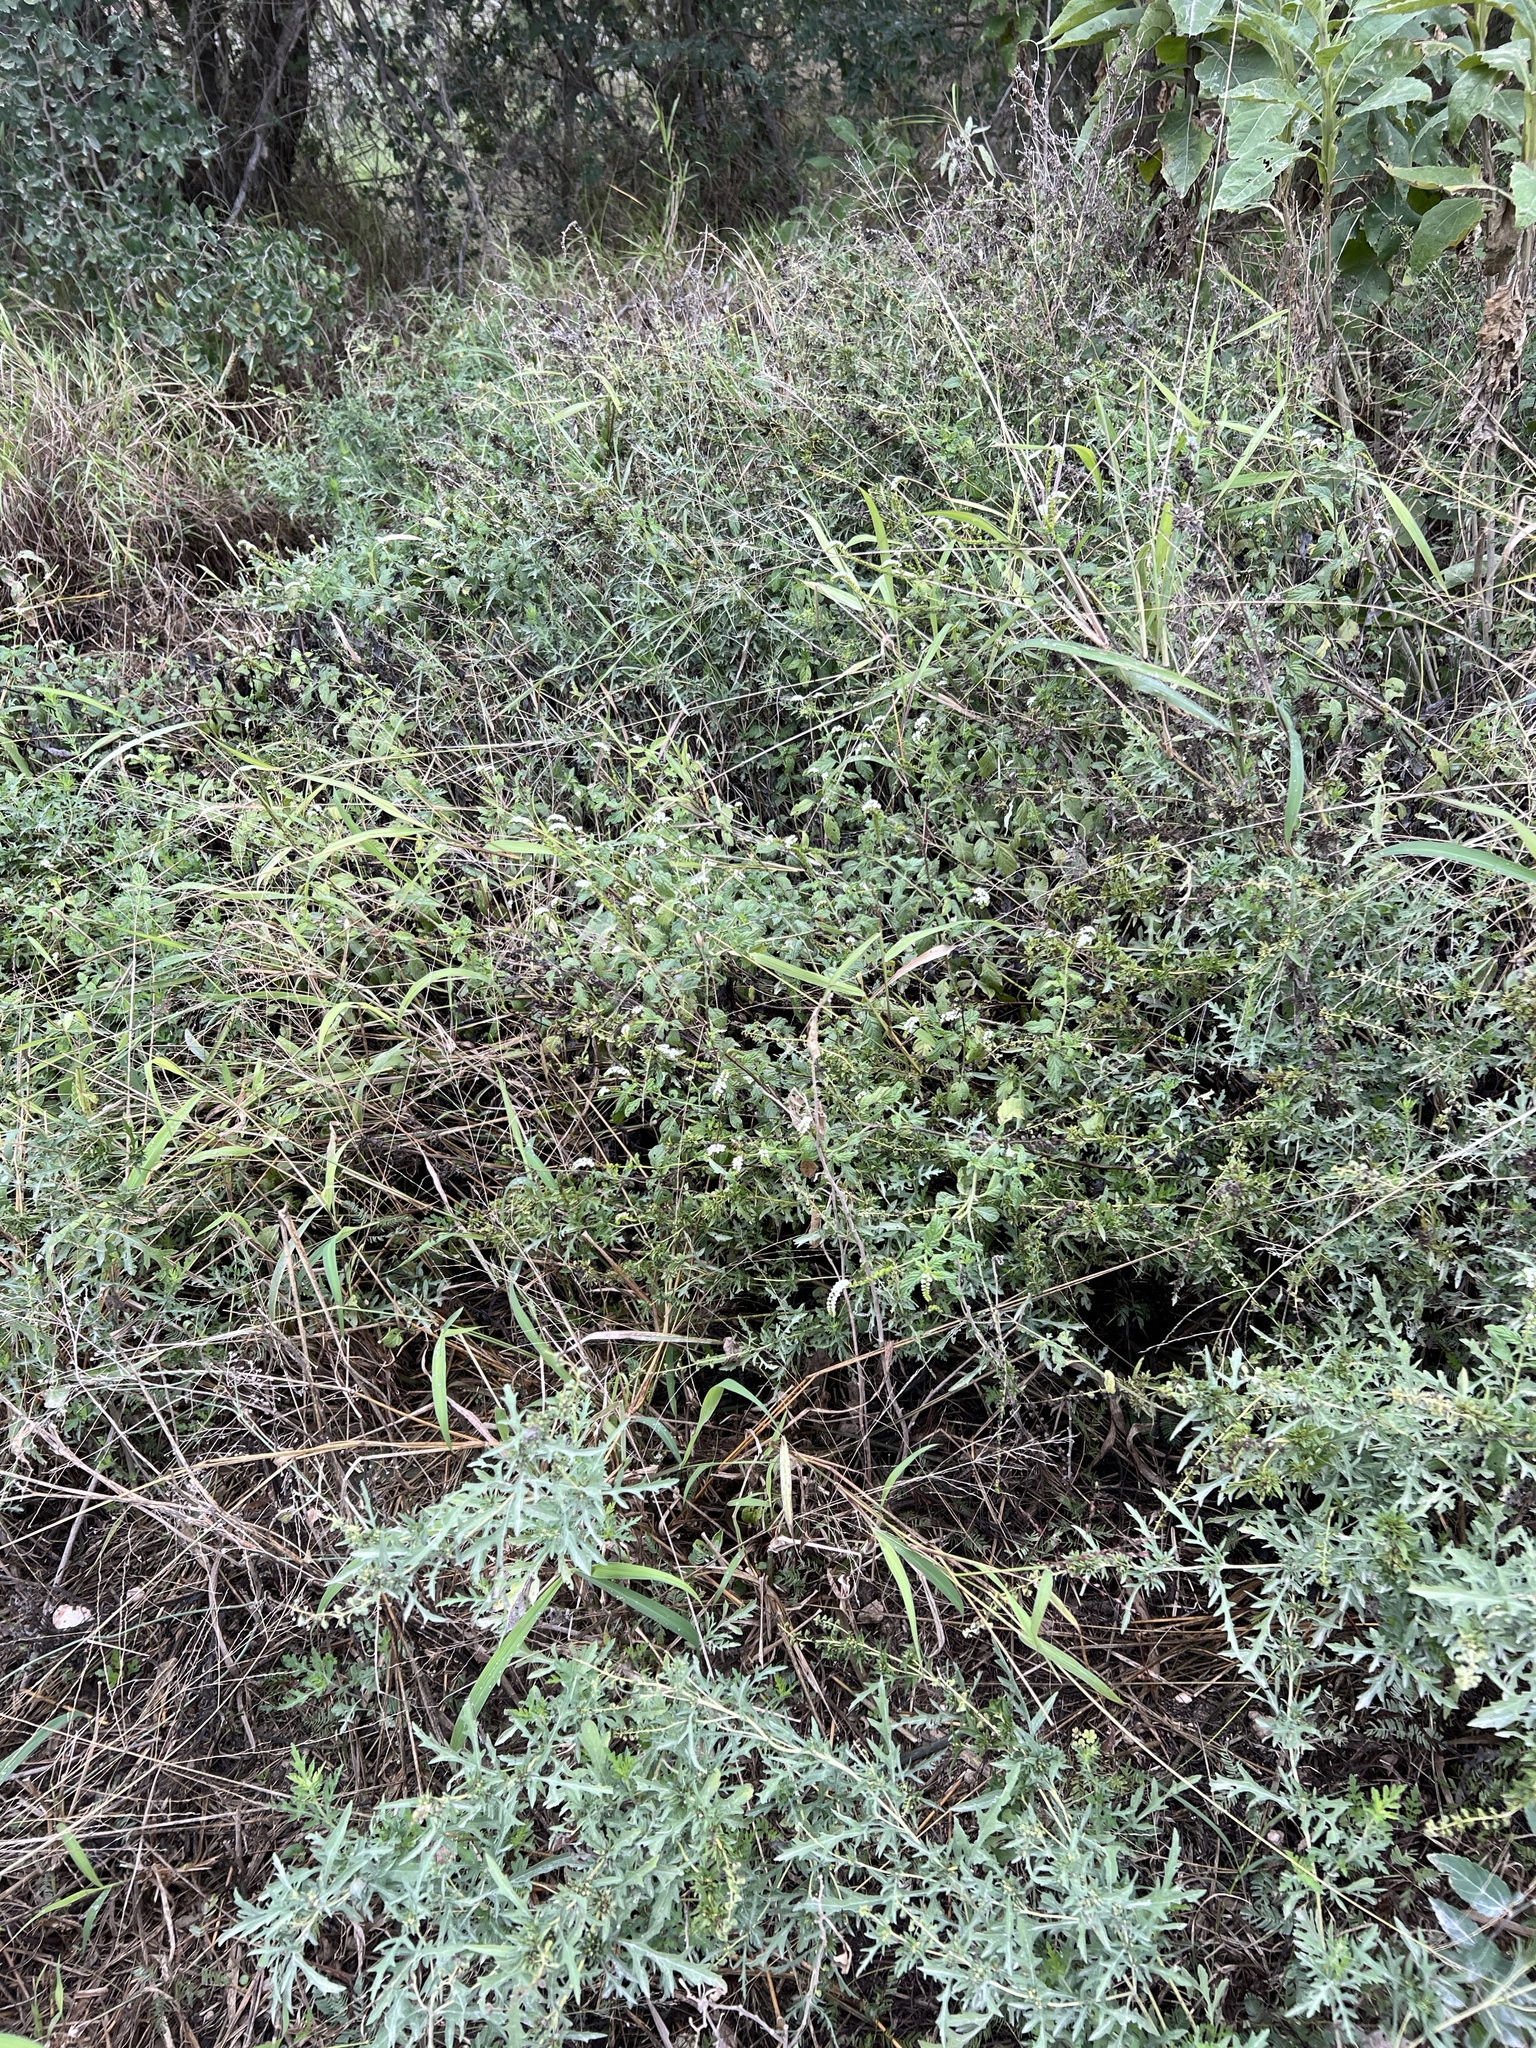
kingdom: Plantae
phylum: Tracheophyta
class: Magnoliopsida
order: Boraginales
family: Heliotropiaceae
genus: Heliotropium
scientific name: Heliotropium angiospermum
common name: Eye bright
